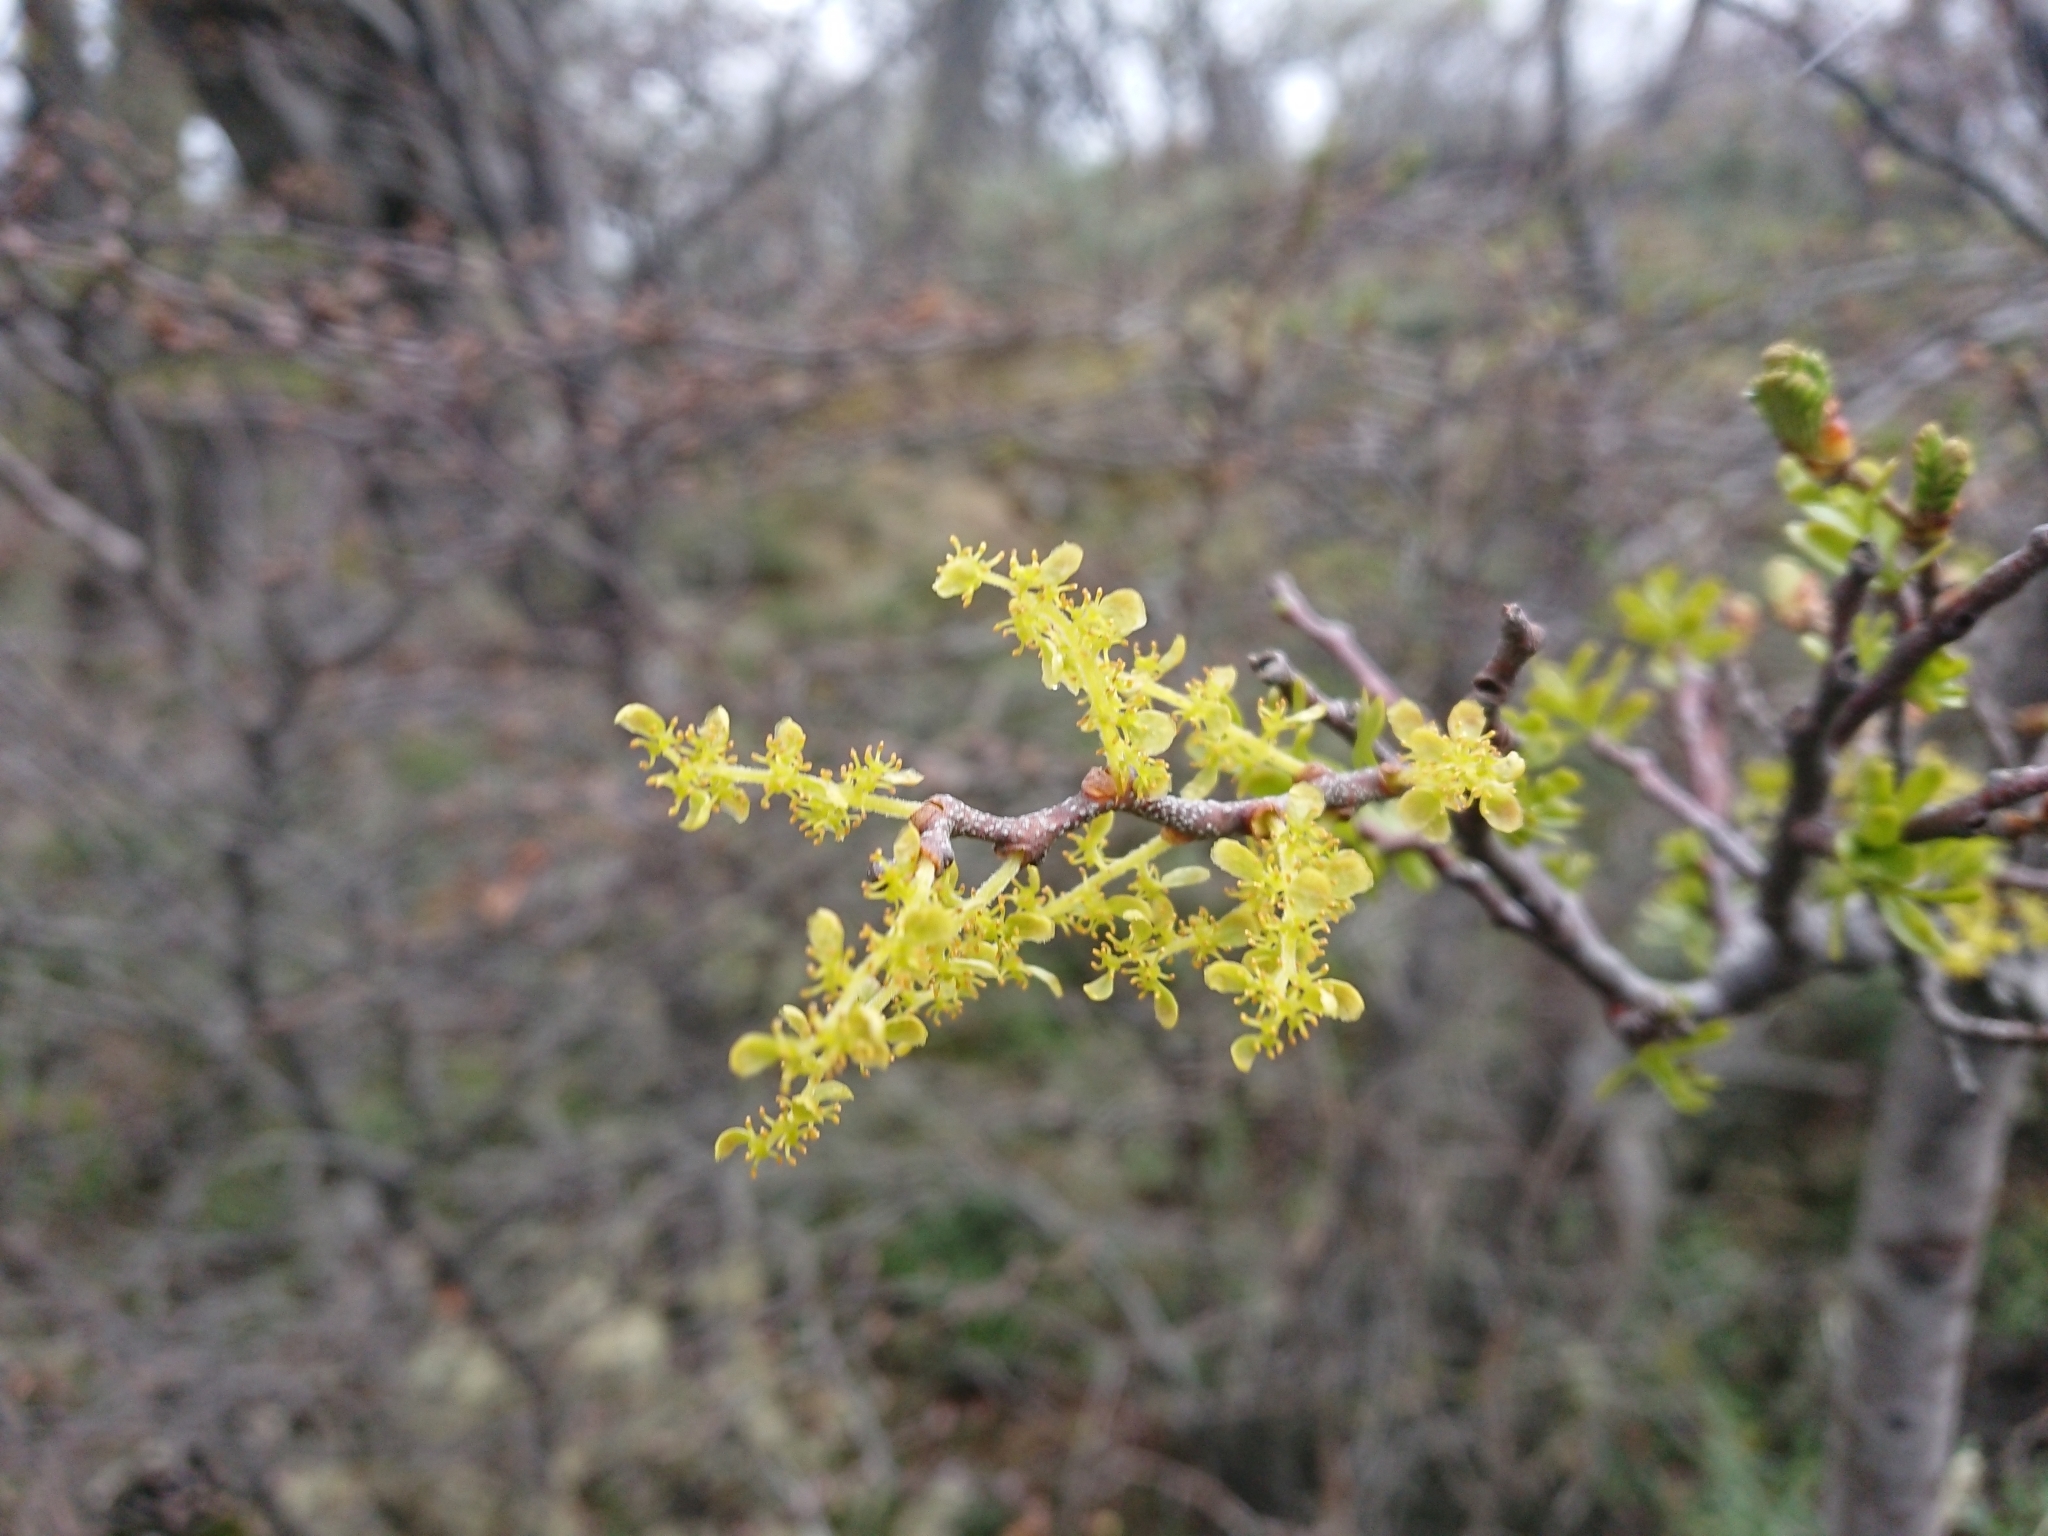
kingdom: Plantae
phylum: Tracheophyta
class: Magnoliopsida
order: Santalales
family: Misodendraceae
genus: Misodendrum
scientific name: Misodendrum quadriflorum
